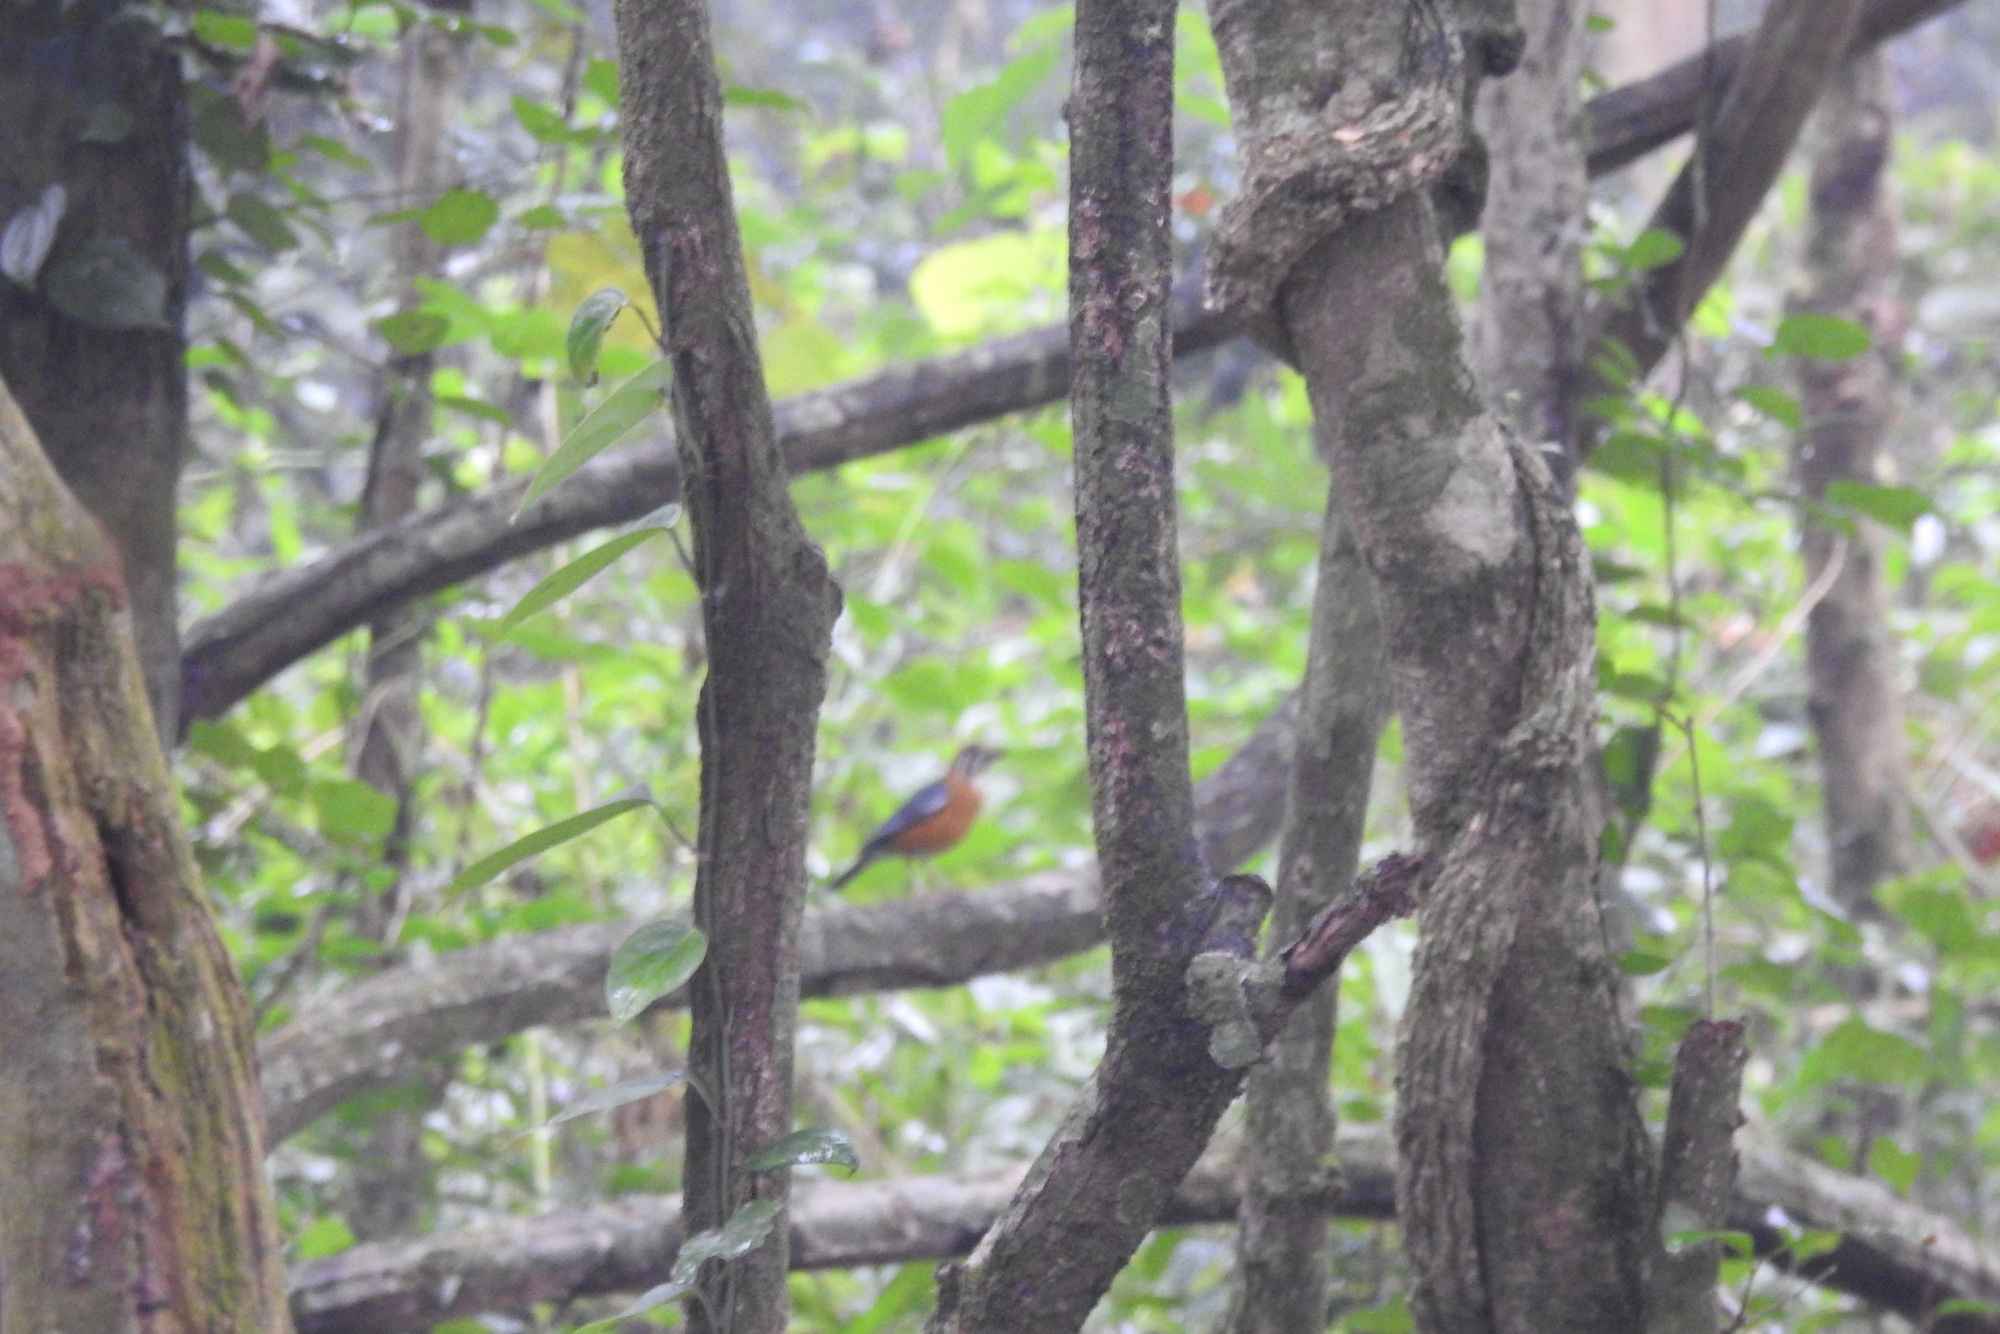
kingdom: Animalia
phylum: Chordata
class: Aves
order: Passeriformes
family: Turdidae
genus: Geokichla
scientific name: Geokichla citrina
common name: Orange-headed thrush
